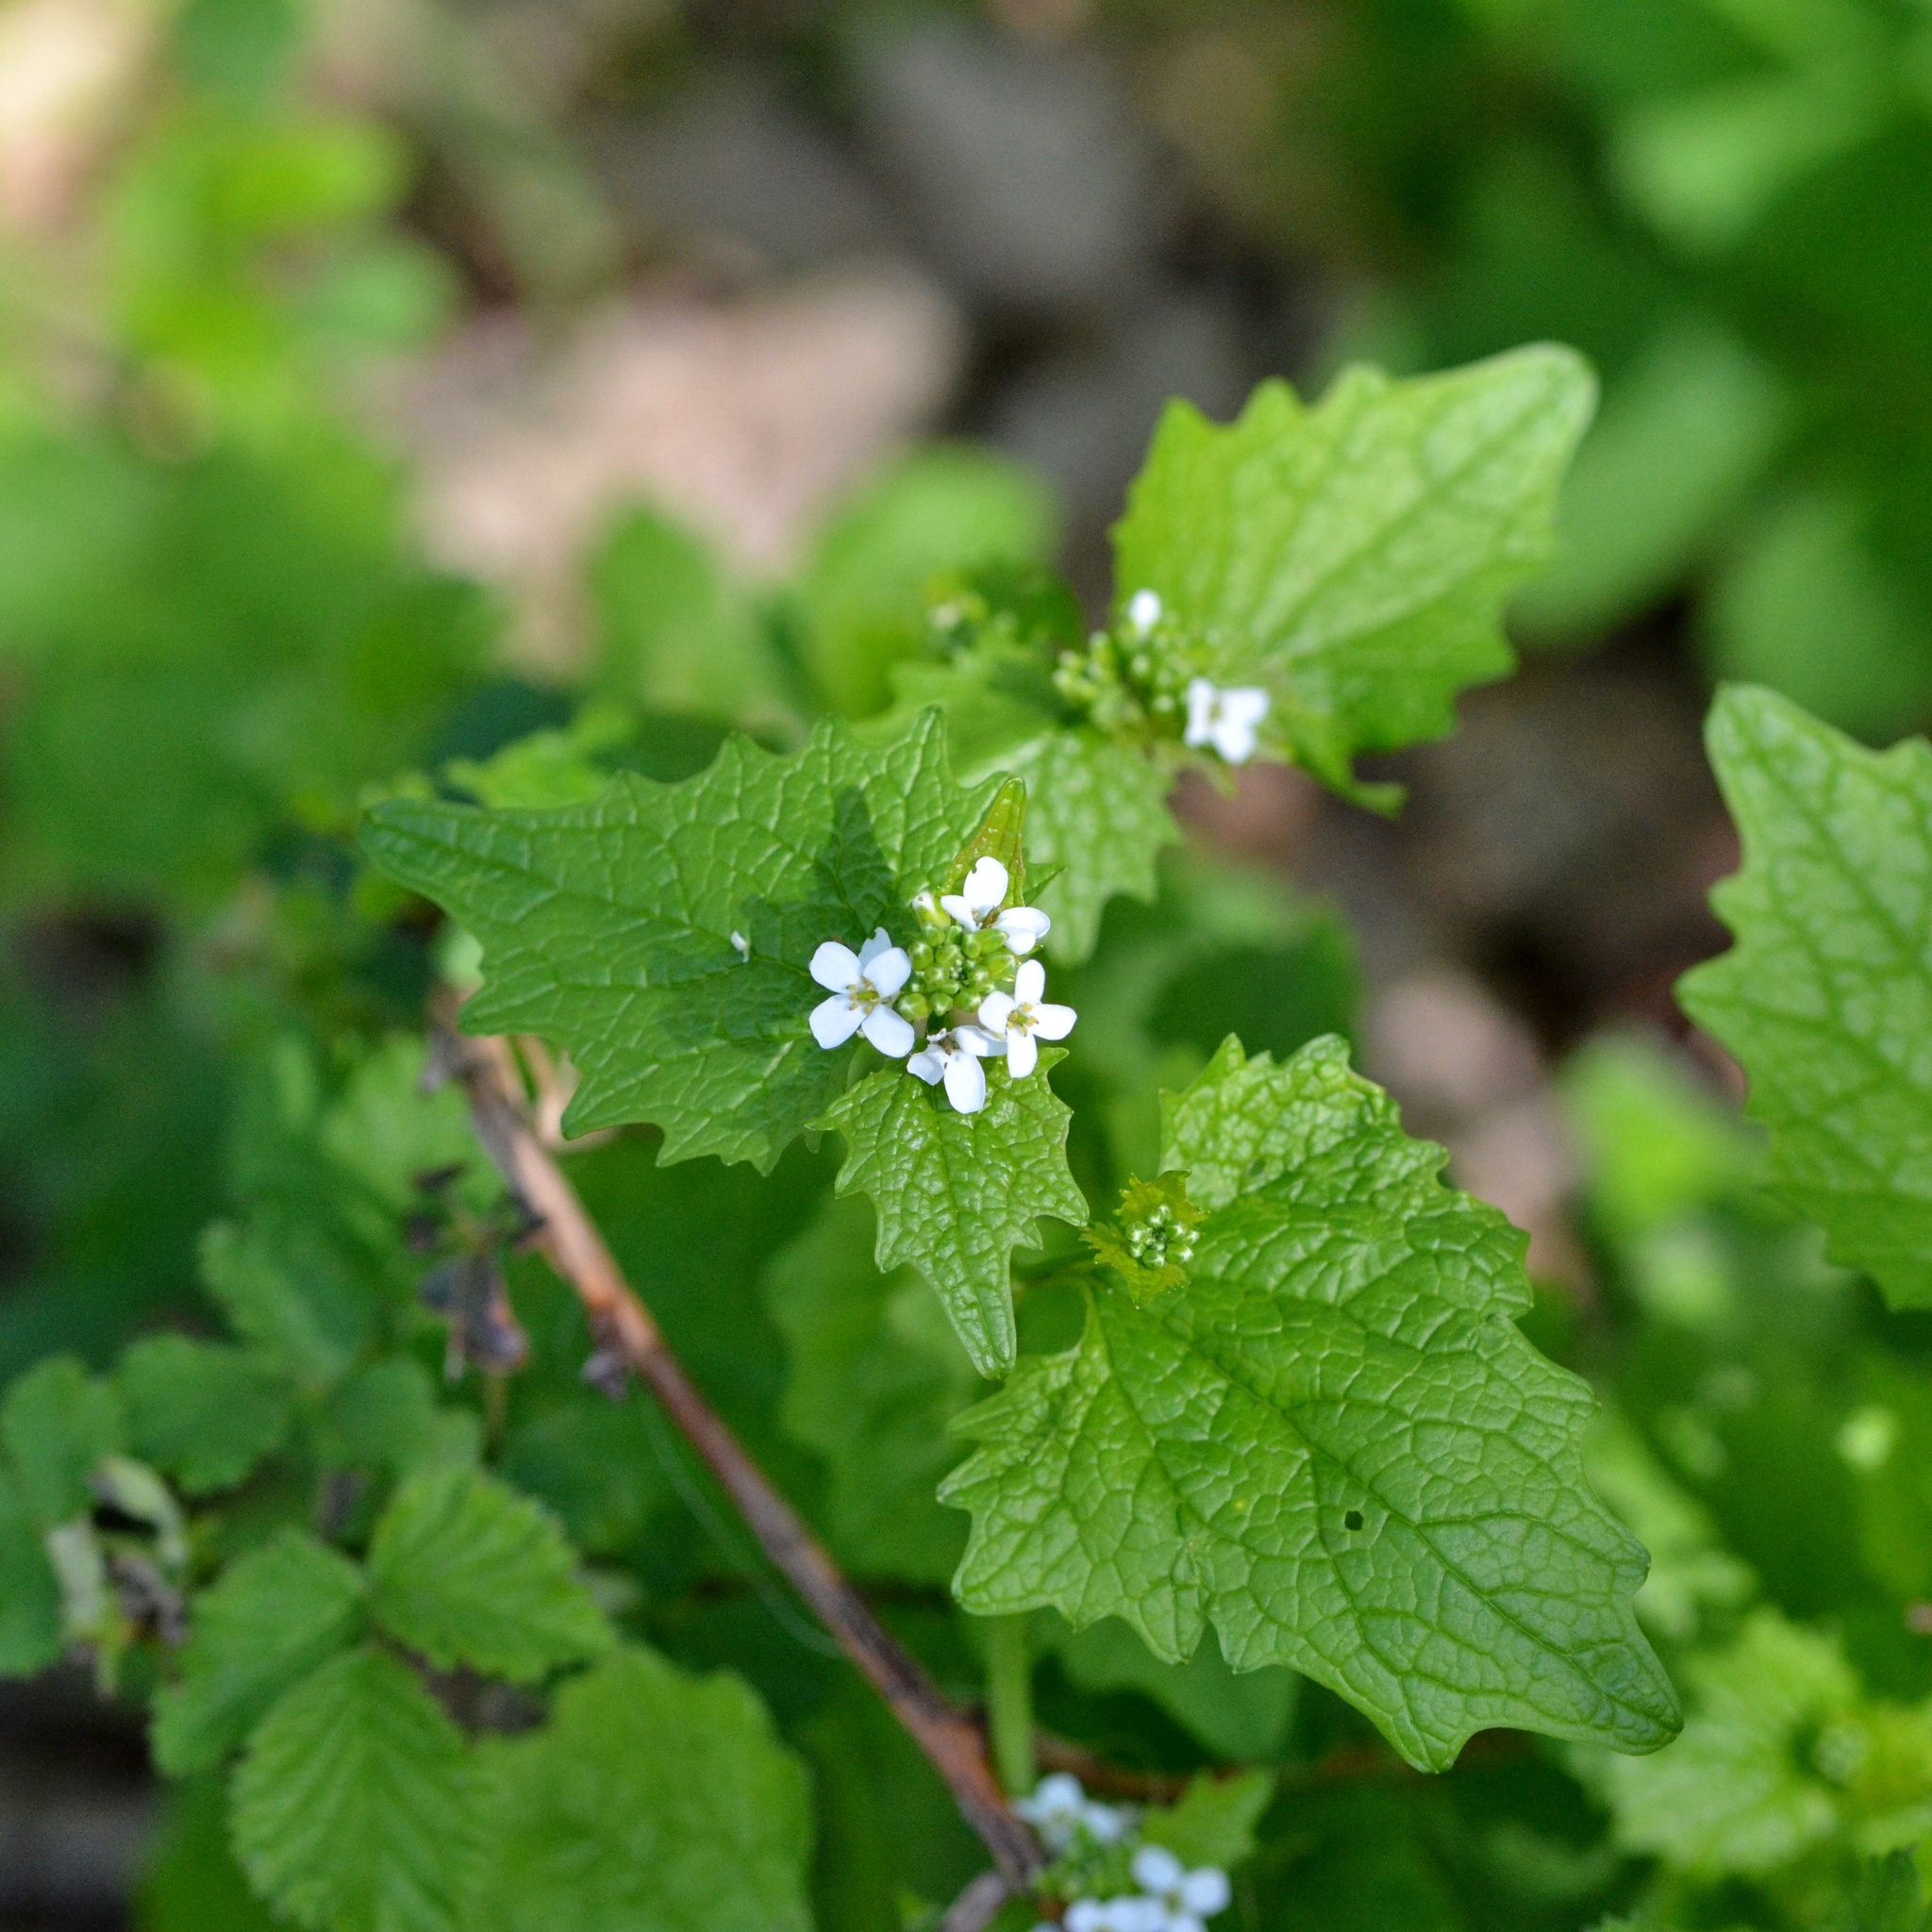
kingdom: Plantae
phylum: Tracheophyta
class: Magnoliopsida
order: Brassicales
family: Brassicaceae
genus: Alliaria
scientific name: Alliaria petiolata
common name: Garlic mustard
